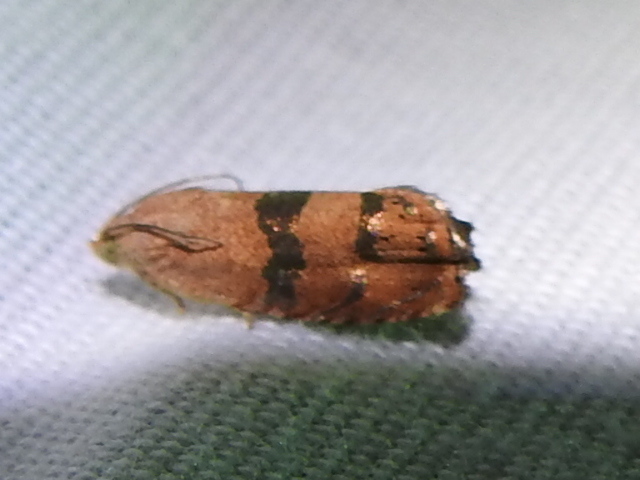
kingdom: Animalia
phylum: Arthropoda
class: Insecta
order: Lepidoptera
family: Tortricidae
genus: Cydia
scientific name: Cydia latiferreana
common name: Filbertworm moth
